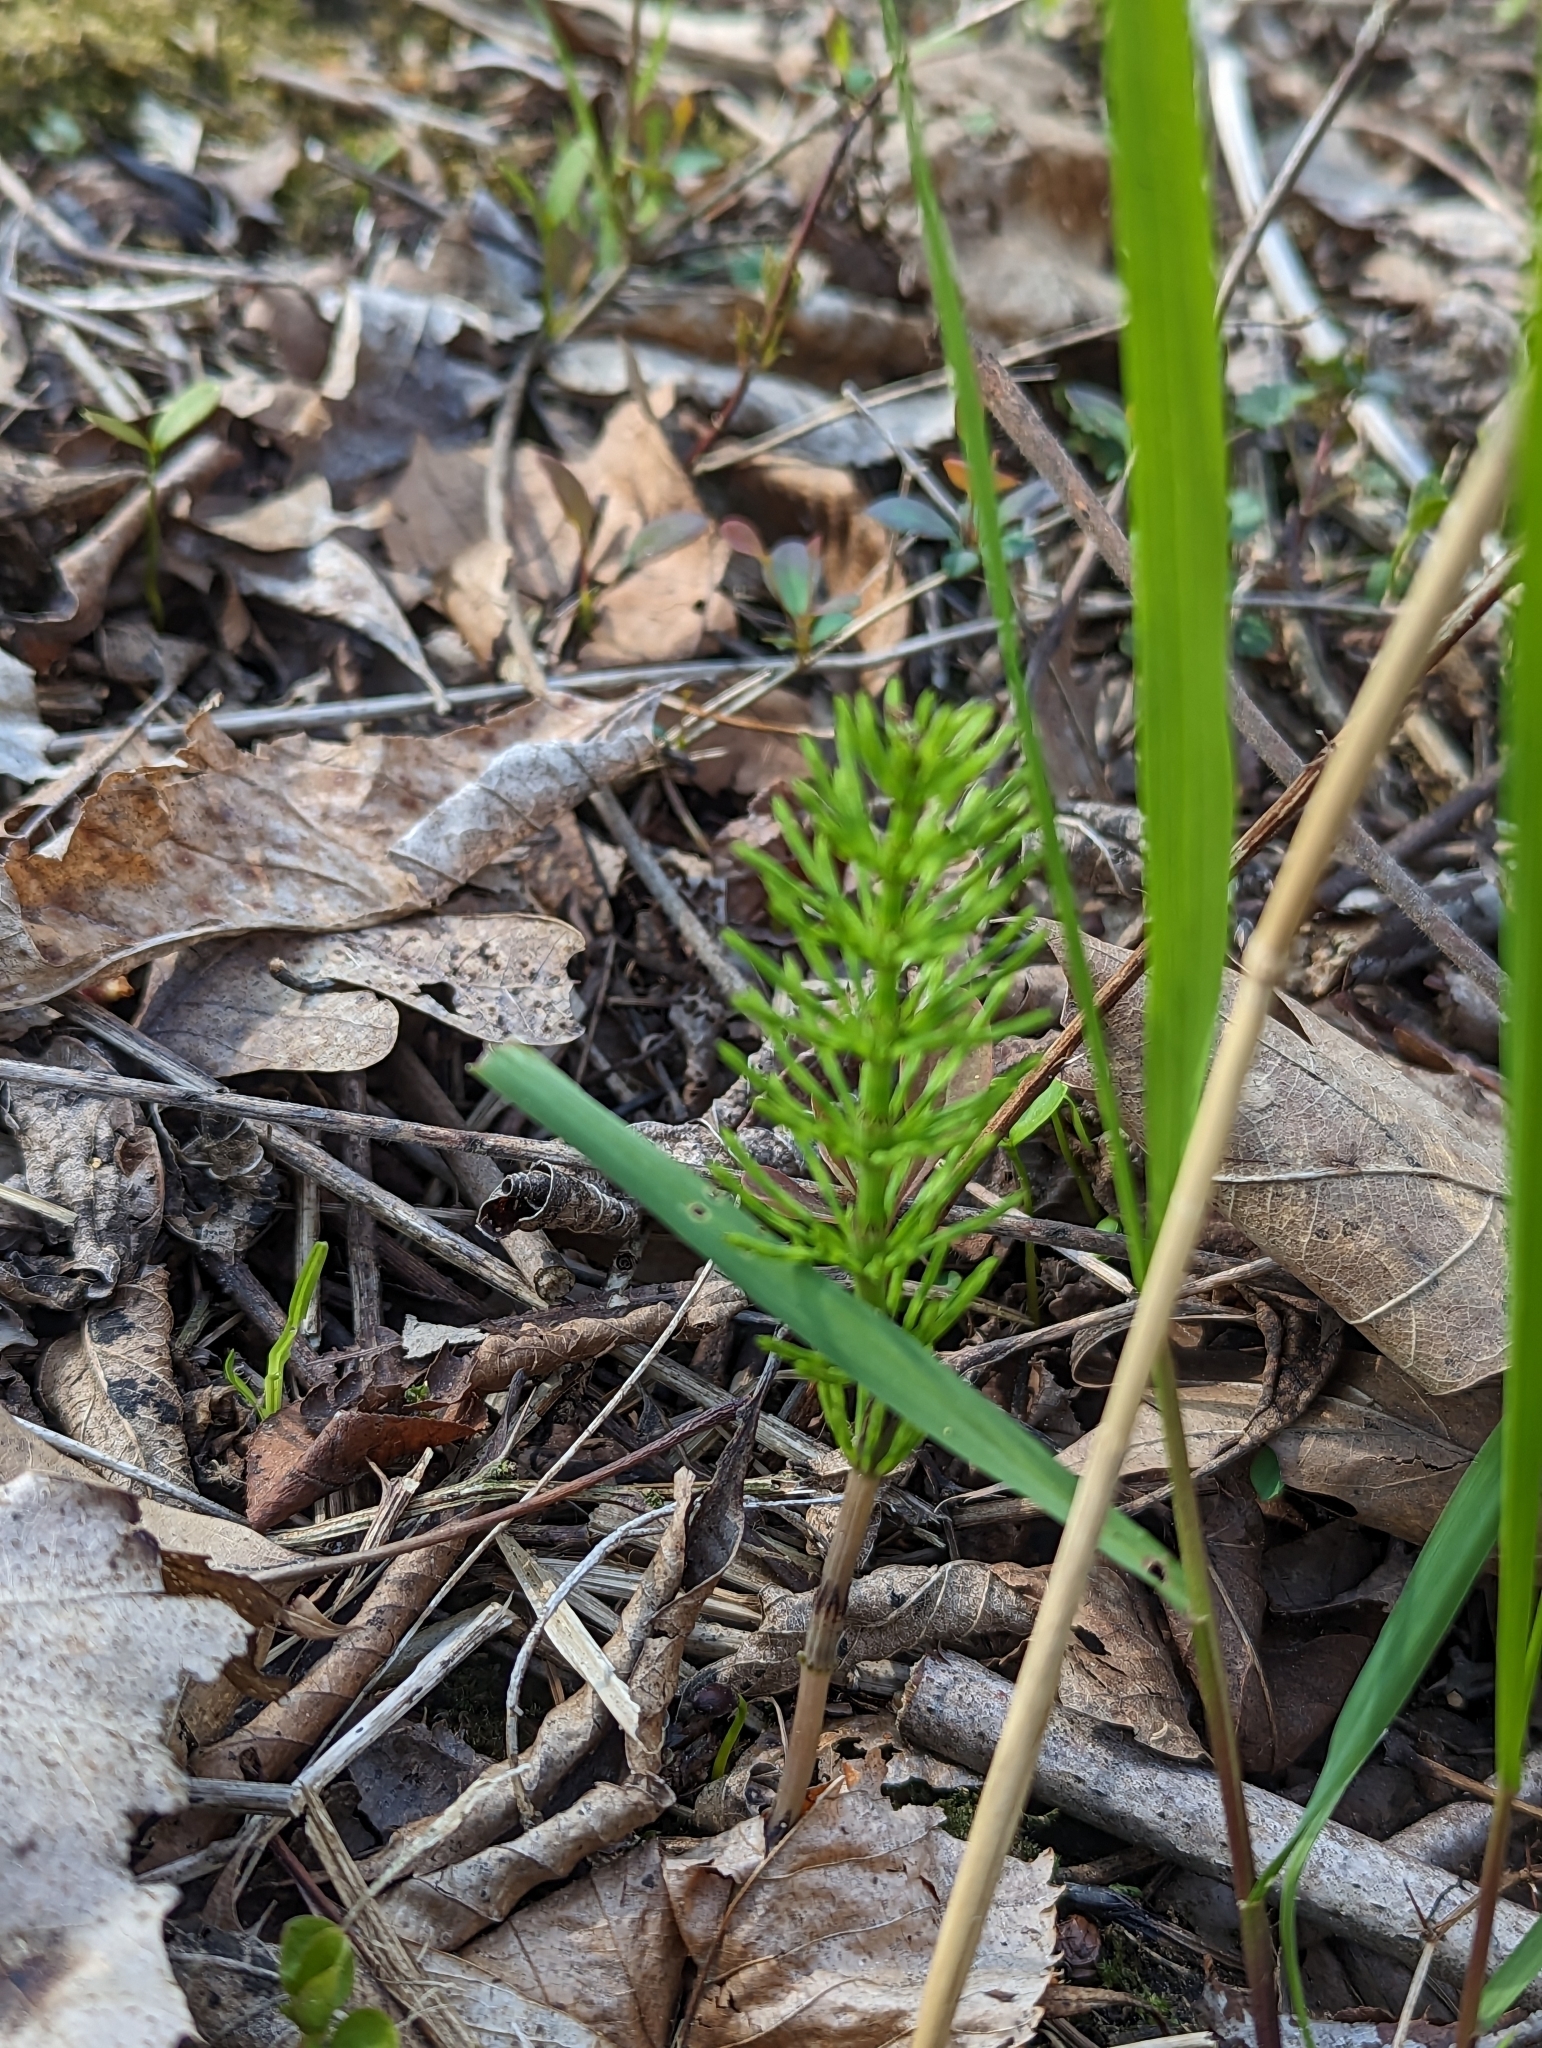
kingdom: Plantae
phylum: Tracheophyta
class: Polypodiopsida
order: Equisetales
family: Equisetaceae
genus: Equisetum
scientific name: Equisetum arvense
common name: Field horsetail
